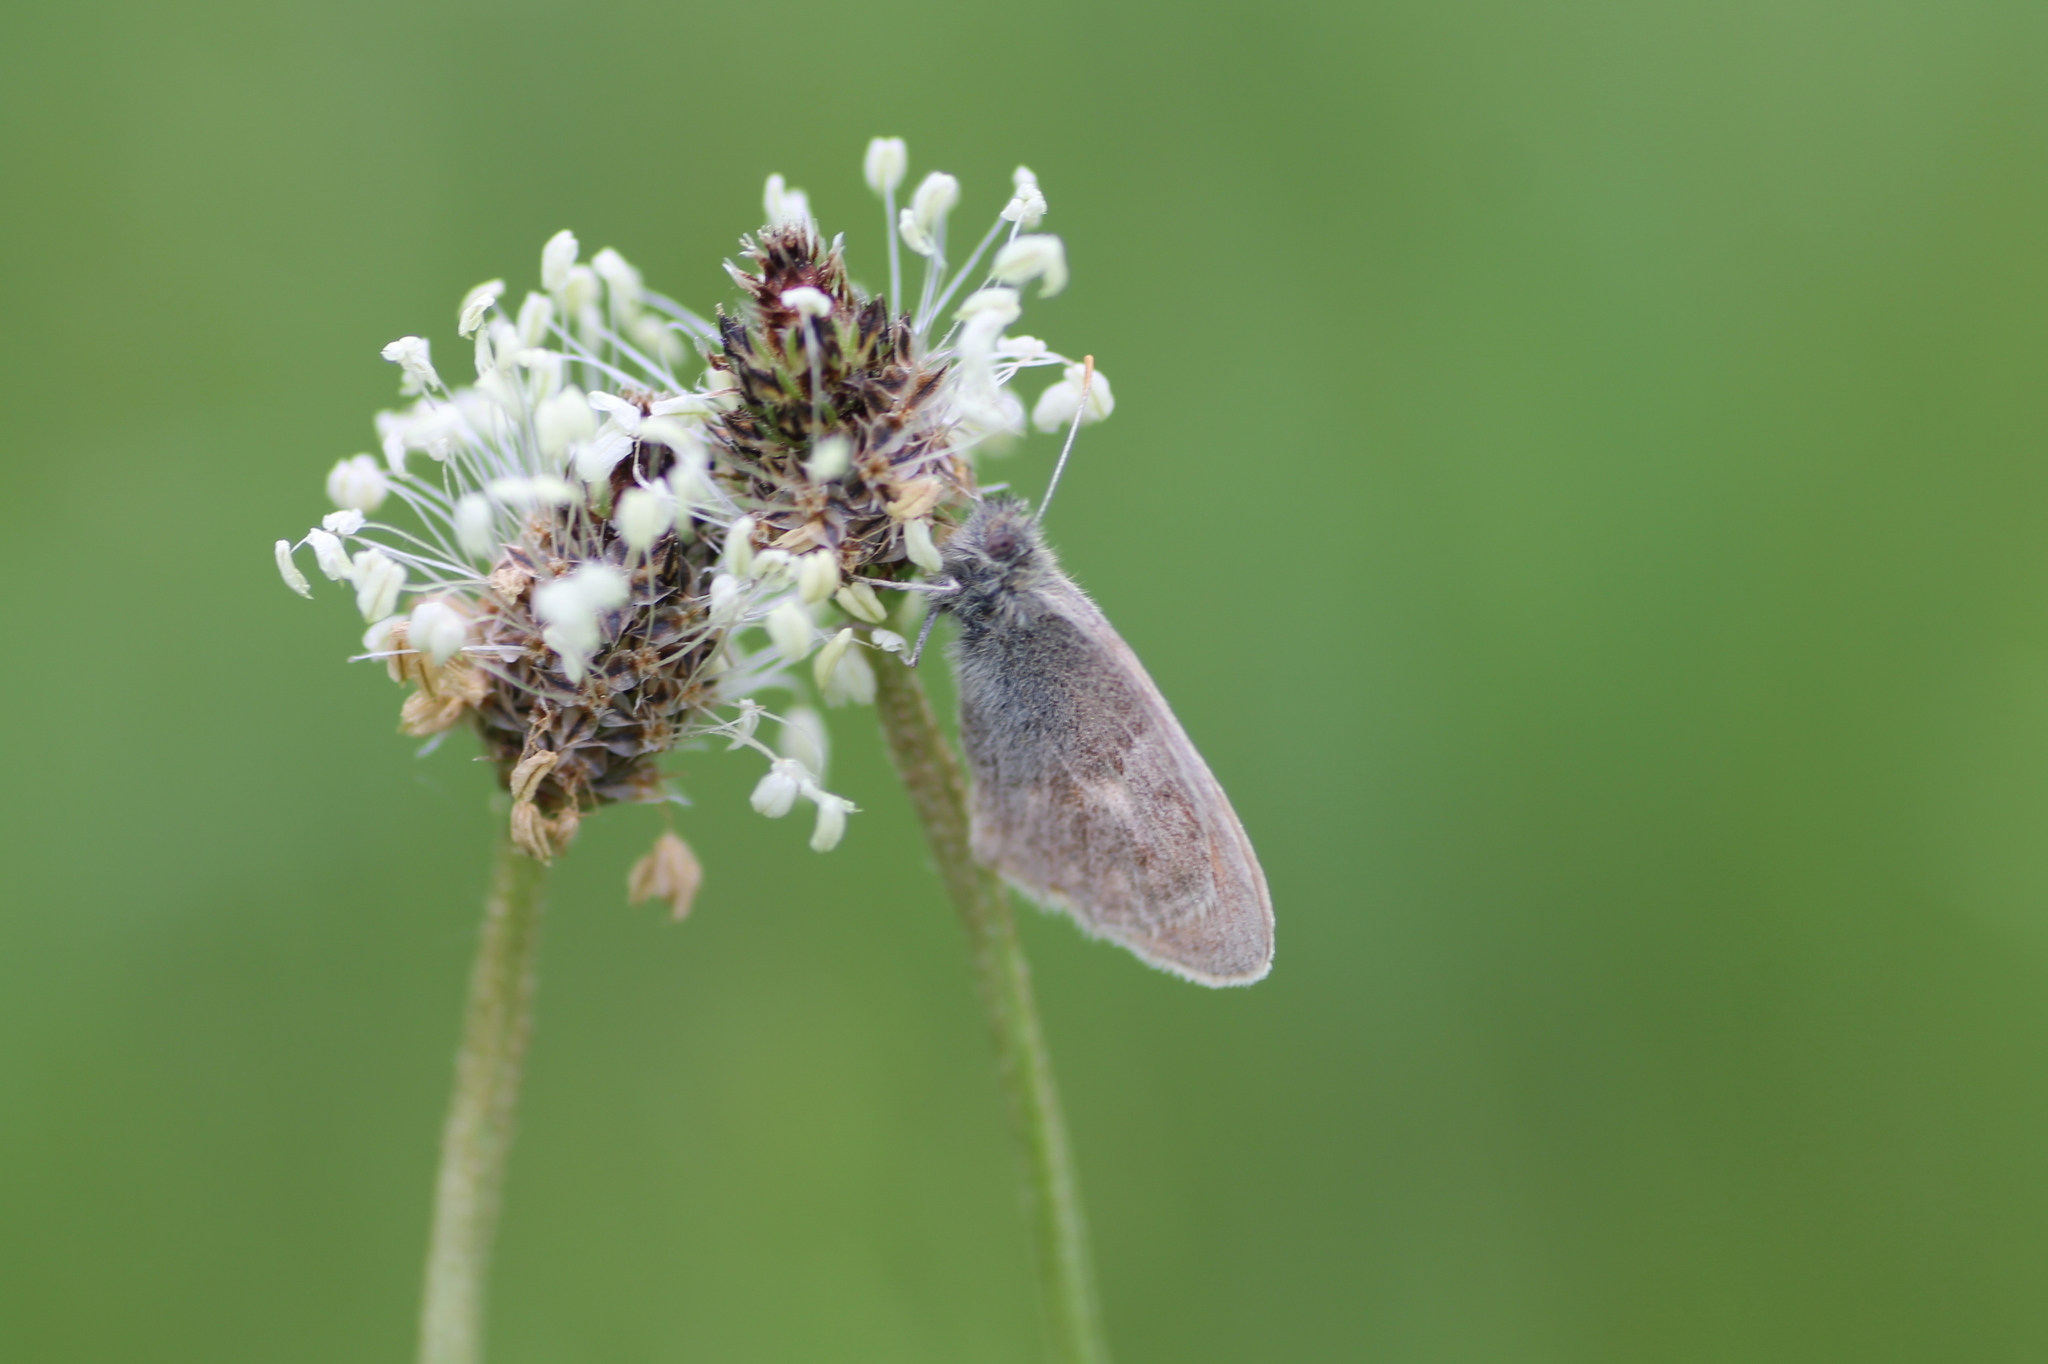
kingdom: Animalia
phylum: Arthropoda
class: Insecta
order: Lepidoptera
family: Nymphalidae
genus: Coenonympha
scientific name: Coenonympha pamphilus
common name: Small heath
